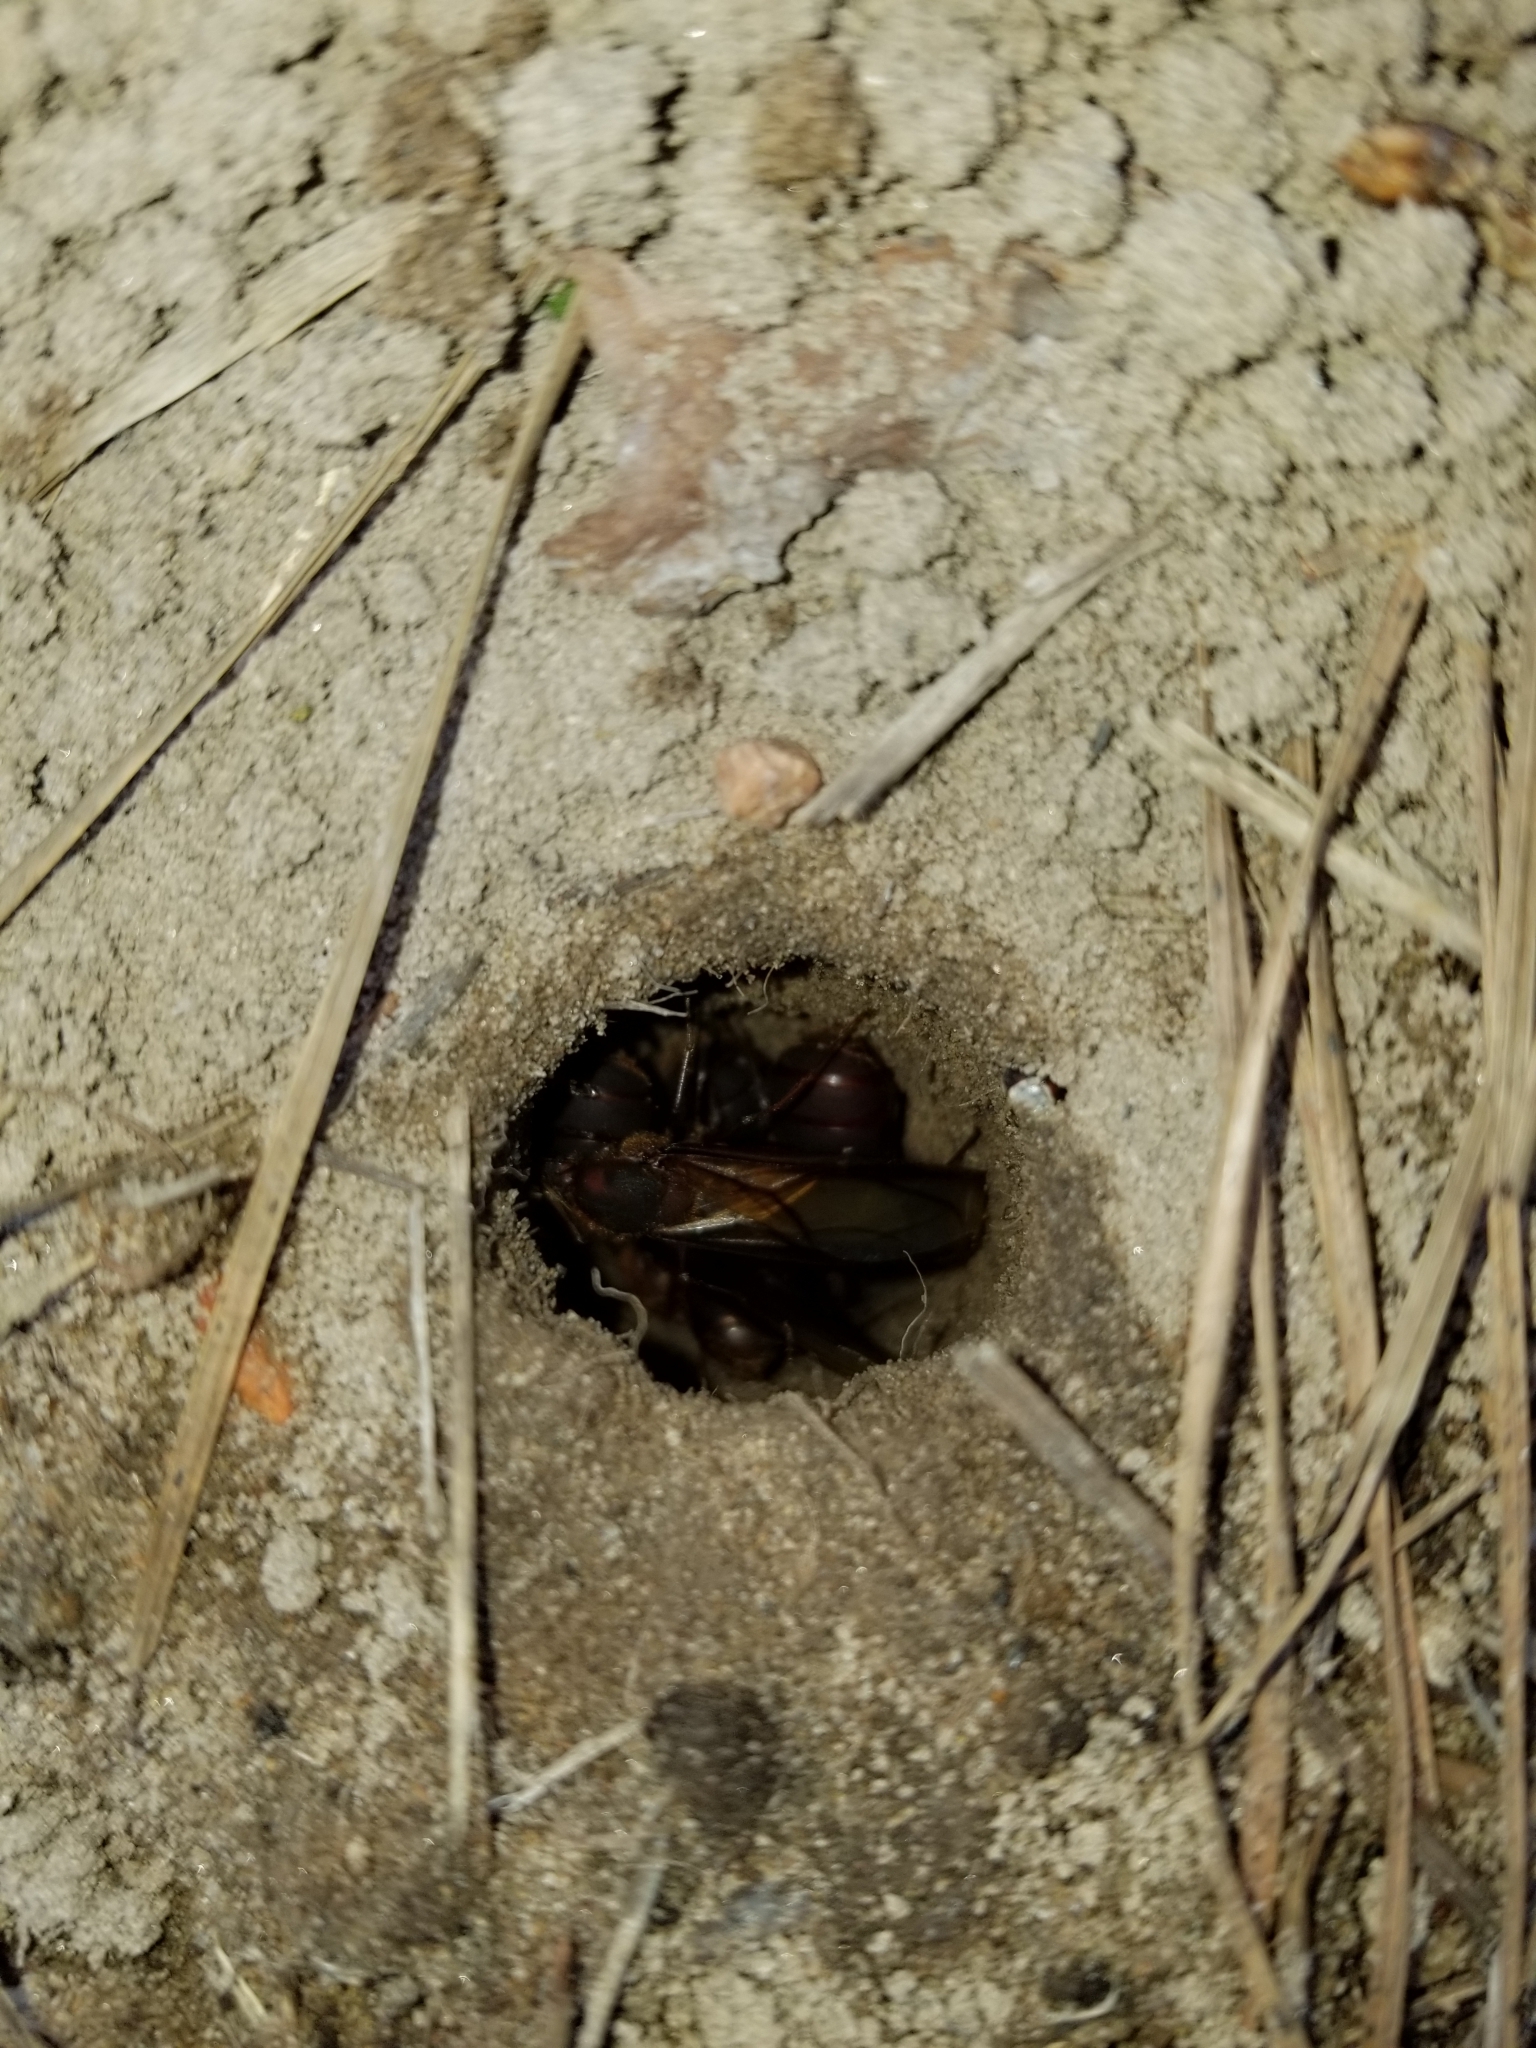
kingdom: Animalia
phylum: Arthropoda
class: Insecta
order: Hymenoptera
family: Formicidae
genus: Atta
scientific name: Atta texana
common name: Texas leafcutting ant
